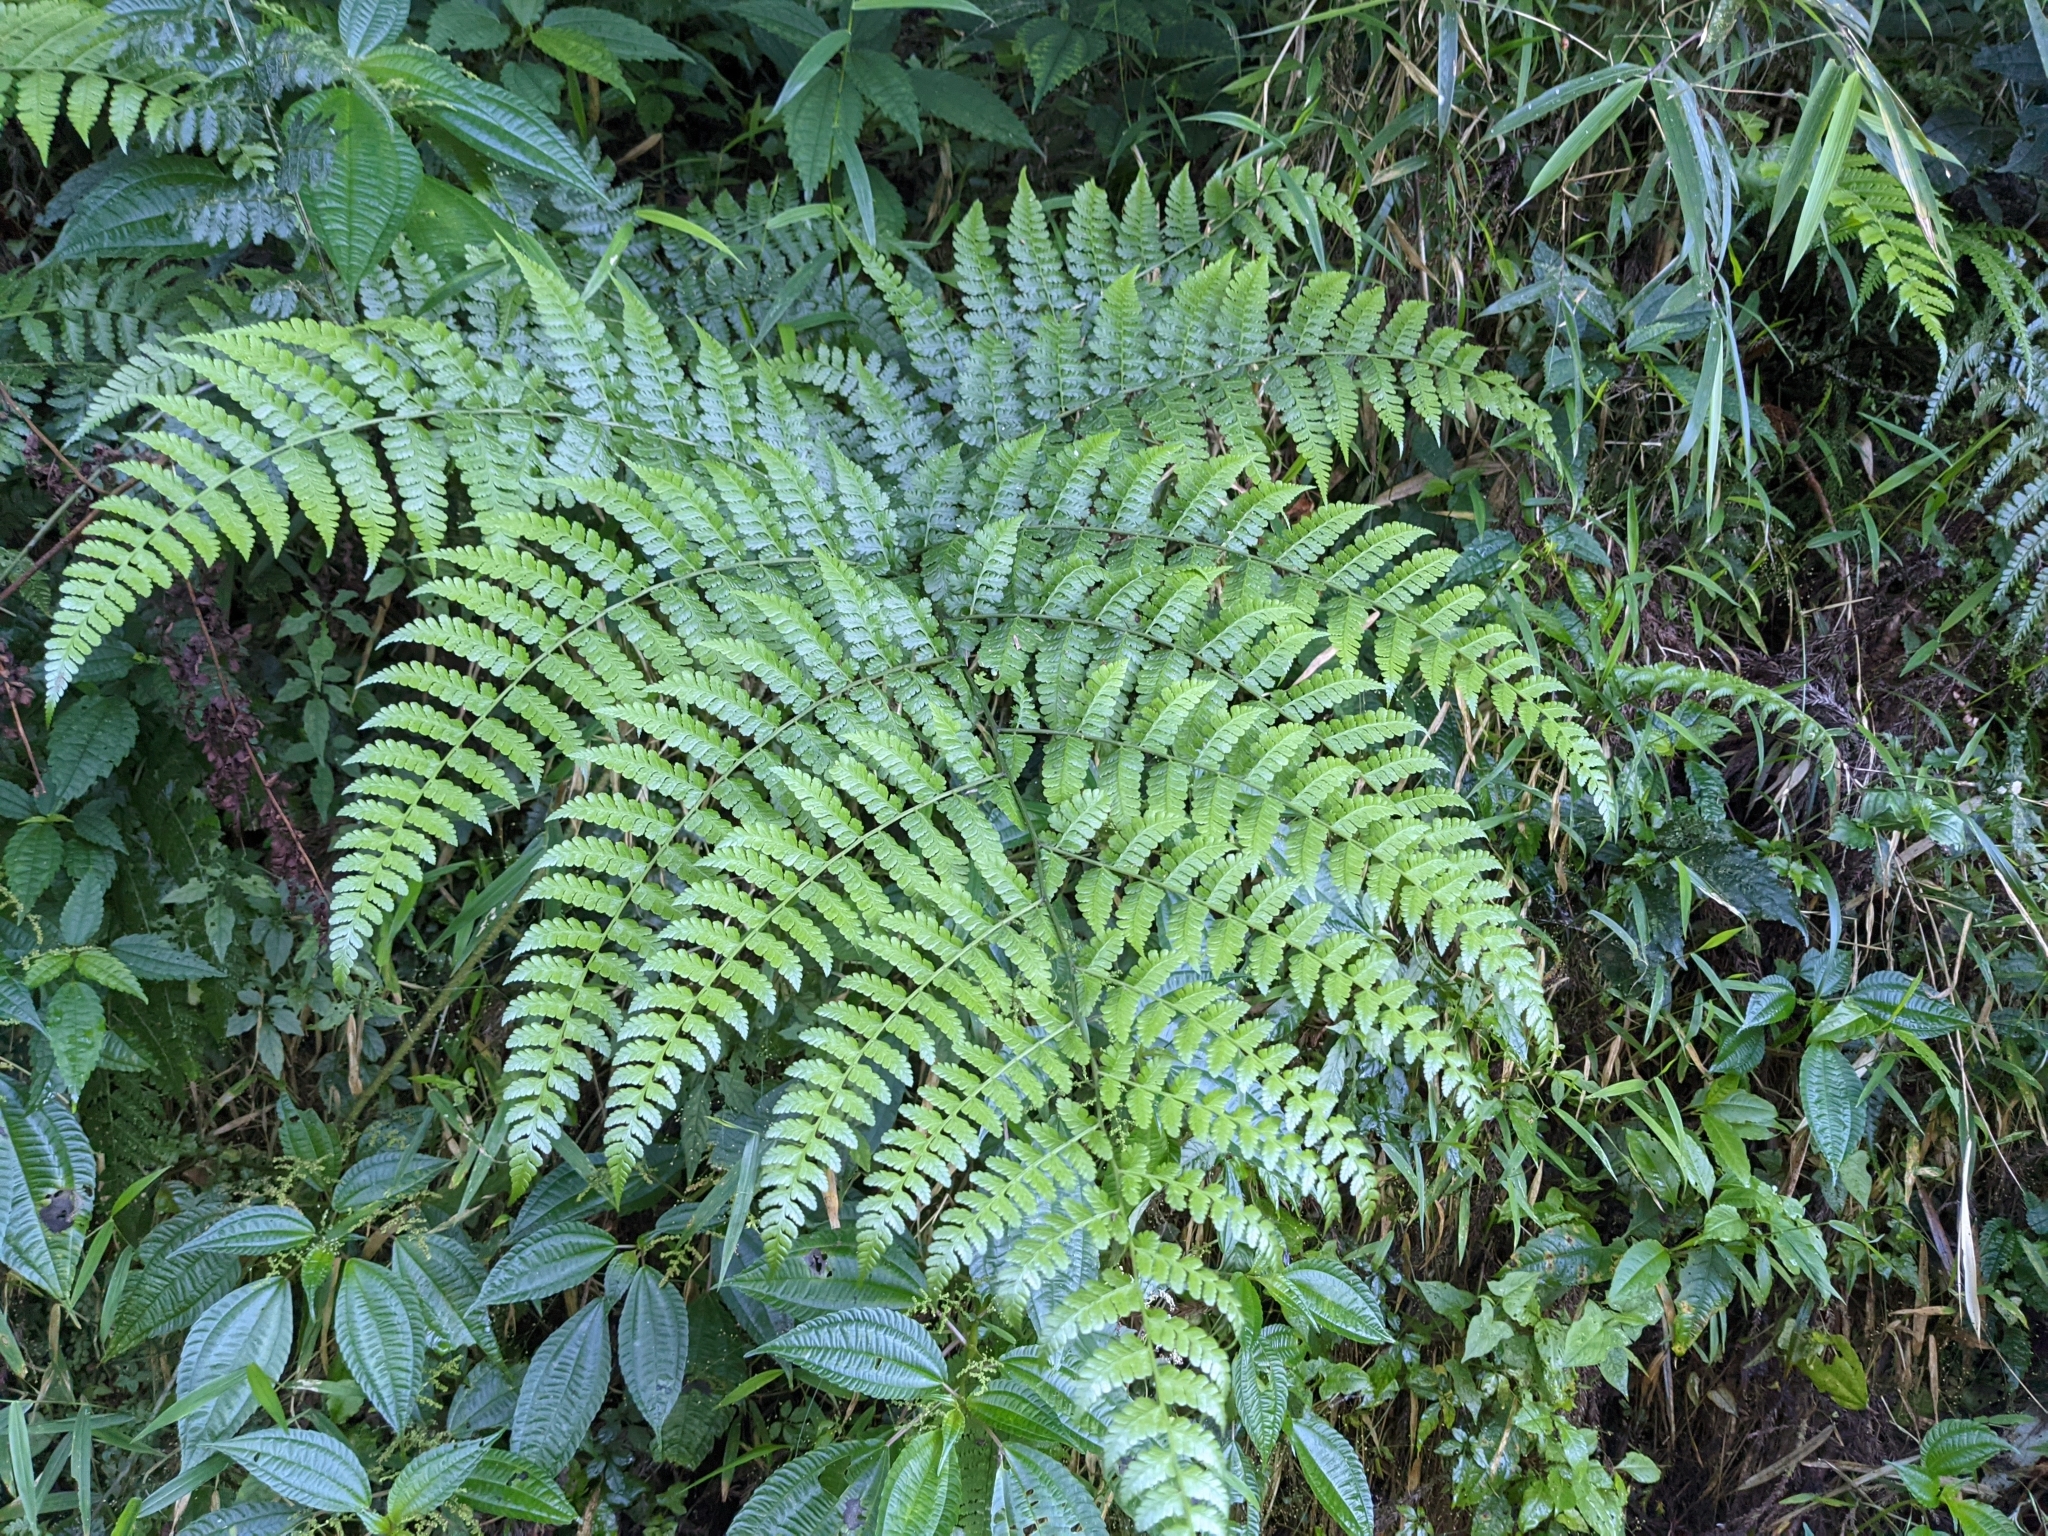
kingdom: Plantae
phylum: Tracheophyta
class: Polypodiopsida
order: Polypodiales
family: Athyriaceae
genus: Diplazium
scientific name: Diplazium kawakamii
